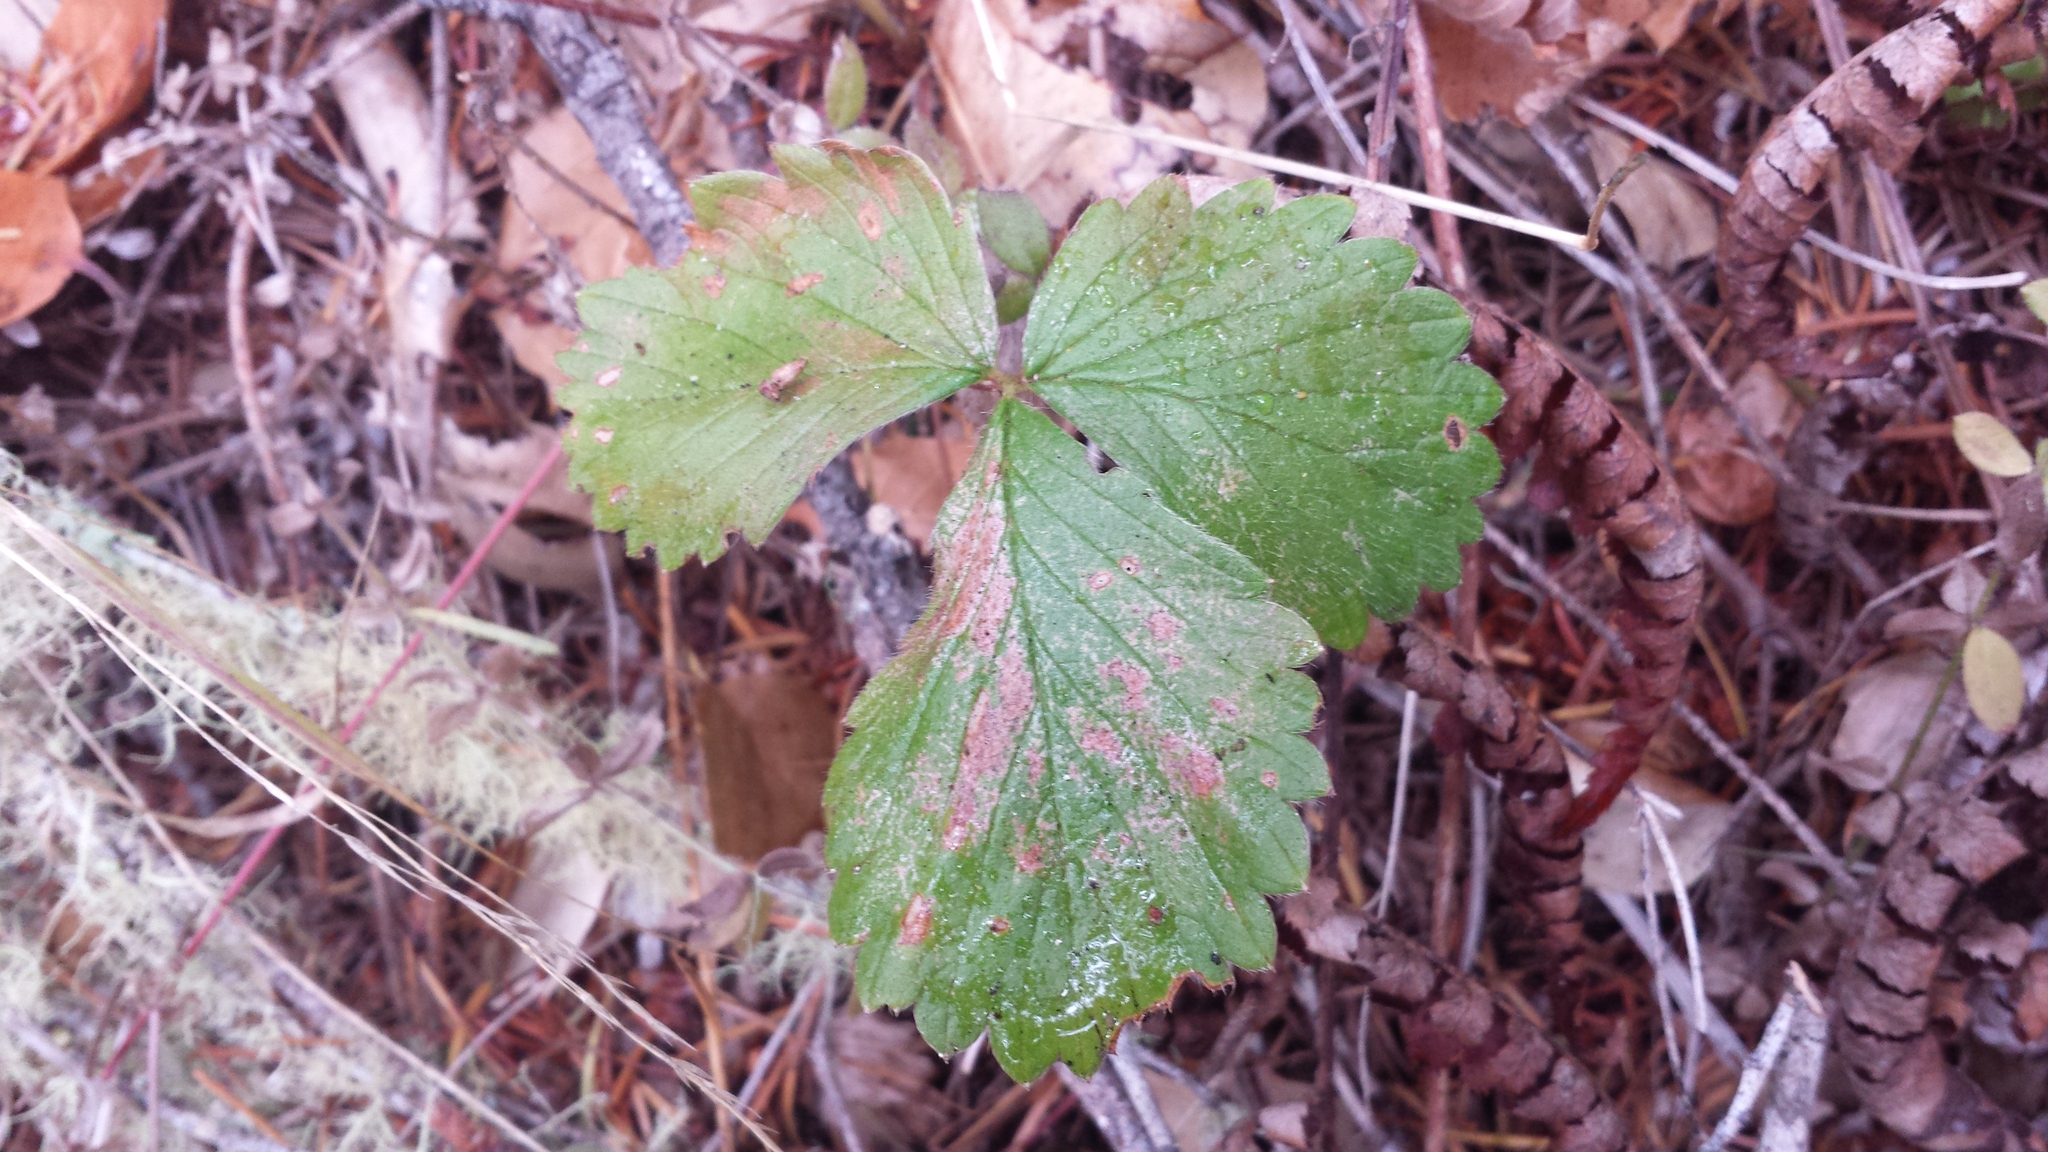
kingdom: Plantae
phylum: Tracheophyta
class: Magnoliopsida
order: Rosales
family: Rosaceae
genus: Fragaria
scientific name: Fragaria vesca
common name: Wild strawberry
